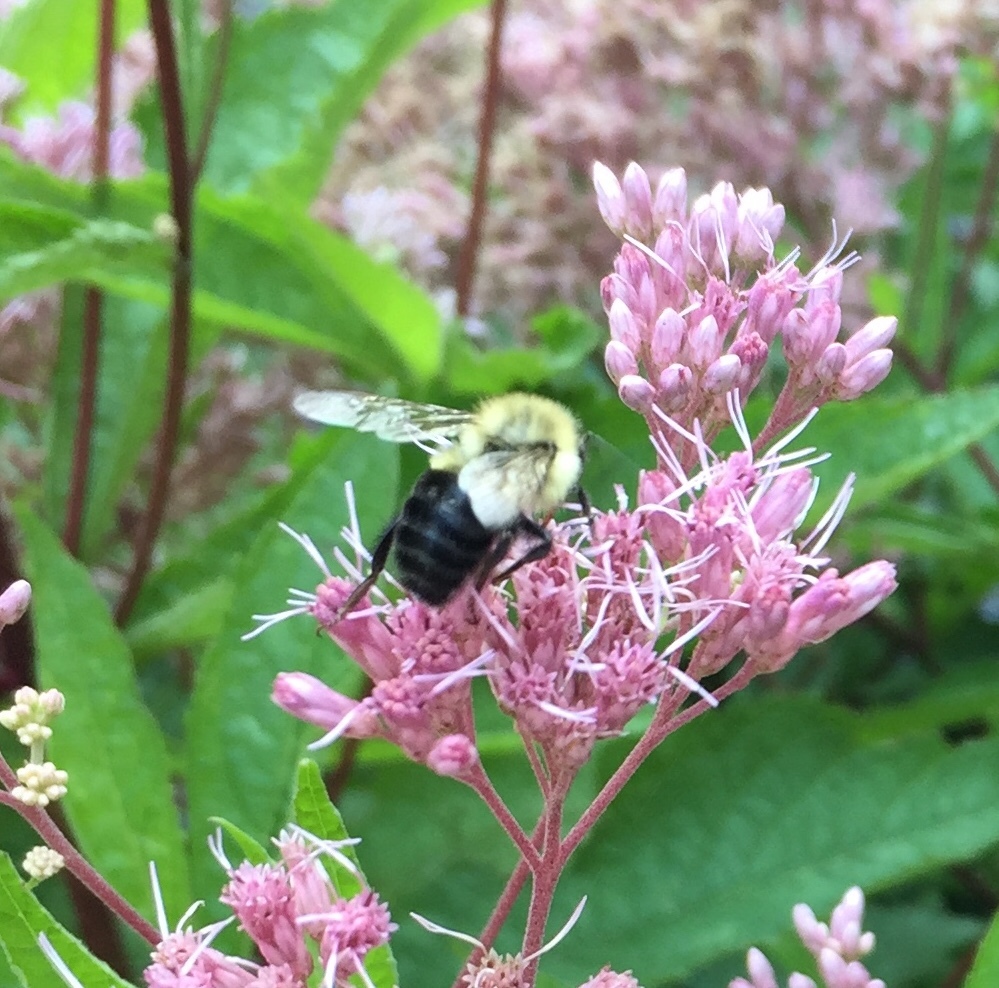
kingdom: Animalia
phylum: Arthropoda
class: Insecta
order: Hymenoptera
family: Apidae
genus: Bombus
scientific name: Bombus impatiens
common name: Common eastern bumble bee
